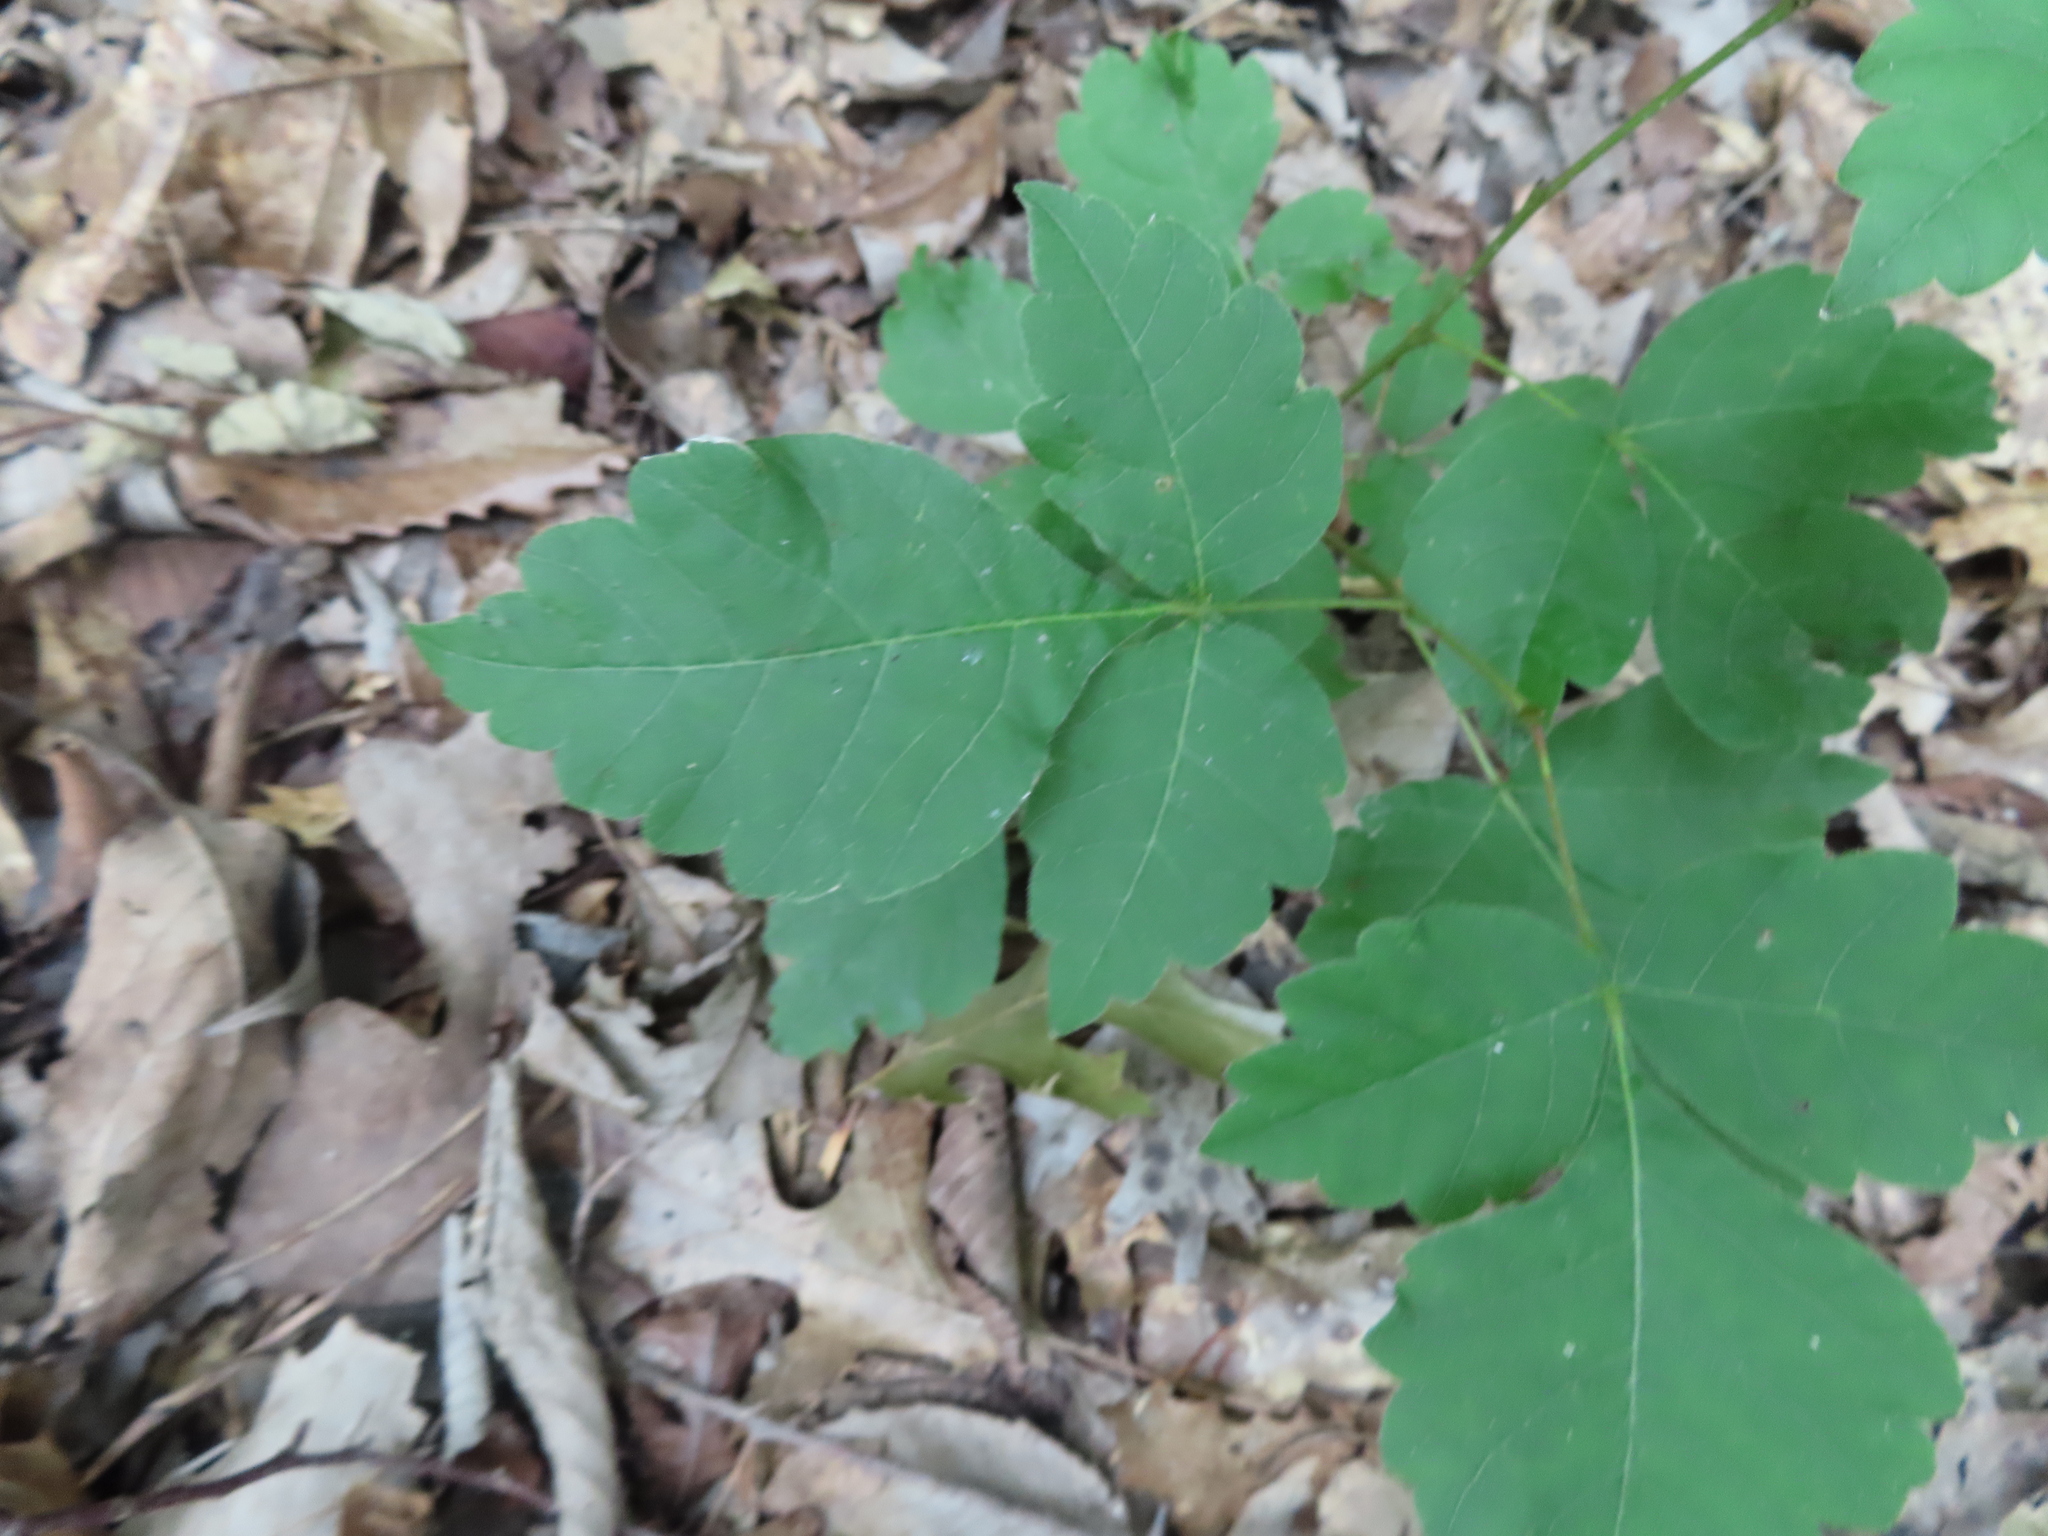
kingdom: Plantae
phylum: Tracheophyta
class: Magnoliopsida
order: Sapindales
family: Anacardiaceae
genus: Rhus
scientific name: Rhus aromatica
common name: Aromatic sumac
